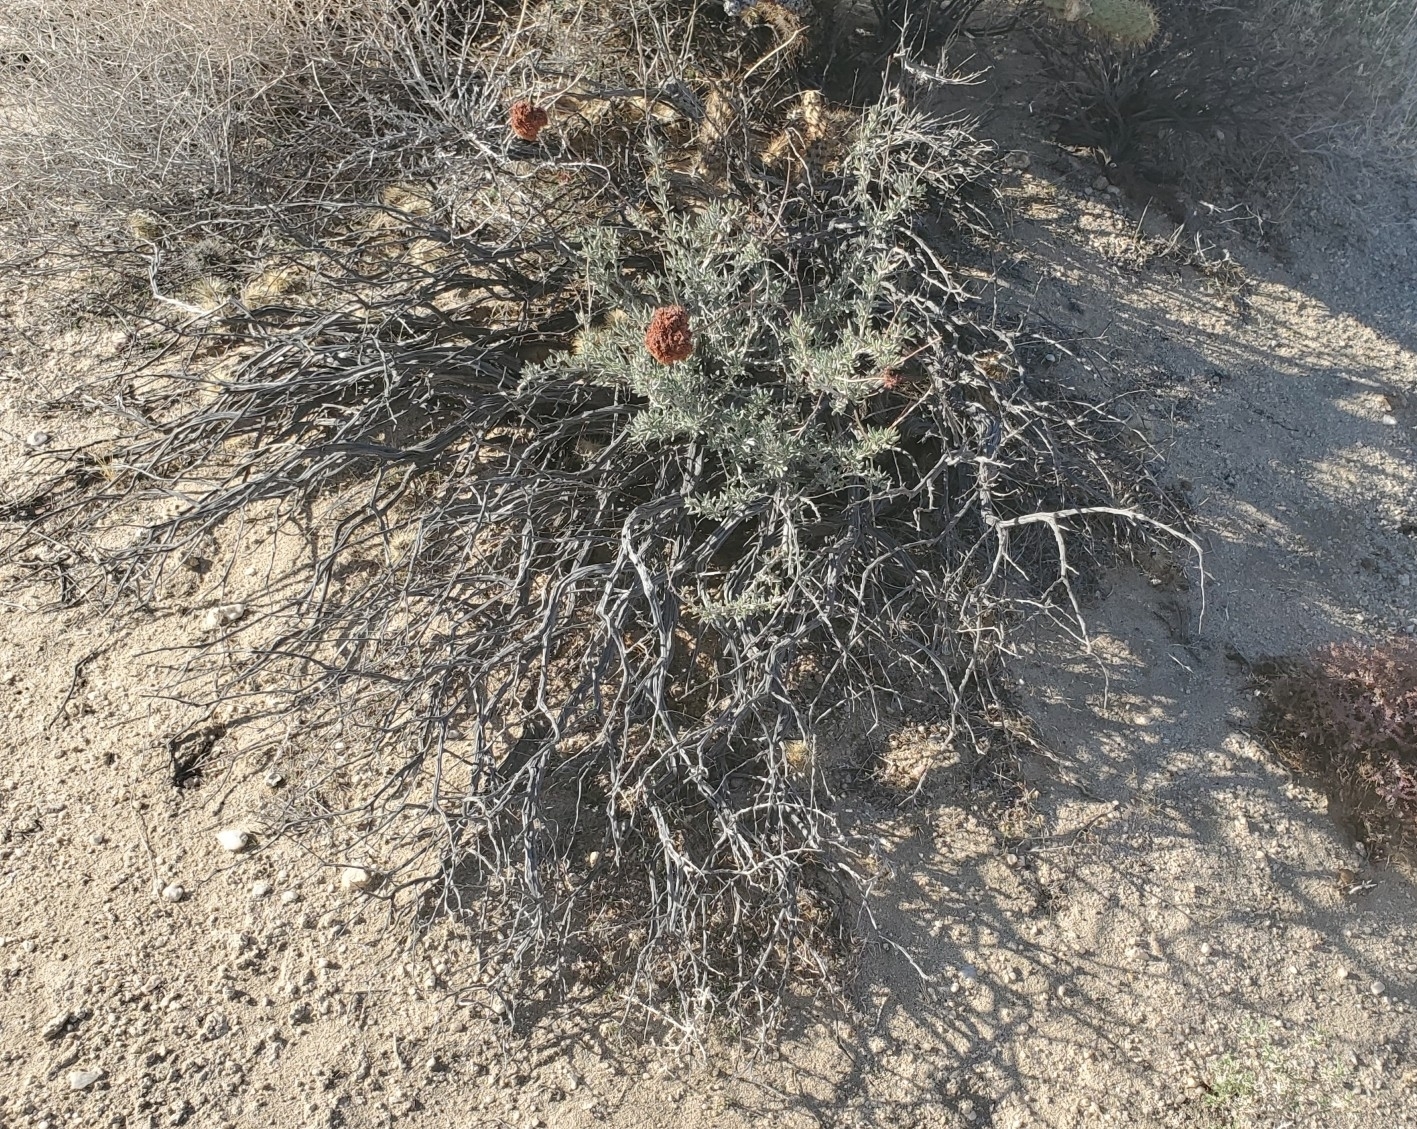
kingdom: Plantae
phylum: Tracheophyta
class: Magnoliopsida
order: Caryophyllales
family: Polygonaceae
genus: Eriogonum
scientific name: Eriogonum fasciculatum
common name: California wild buckwheat
